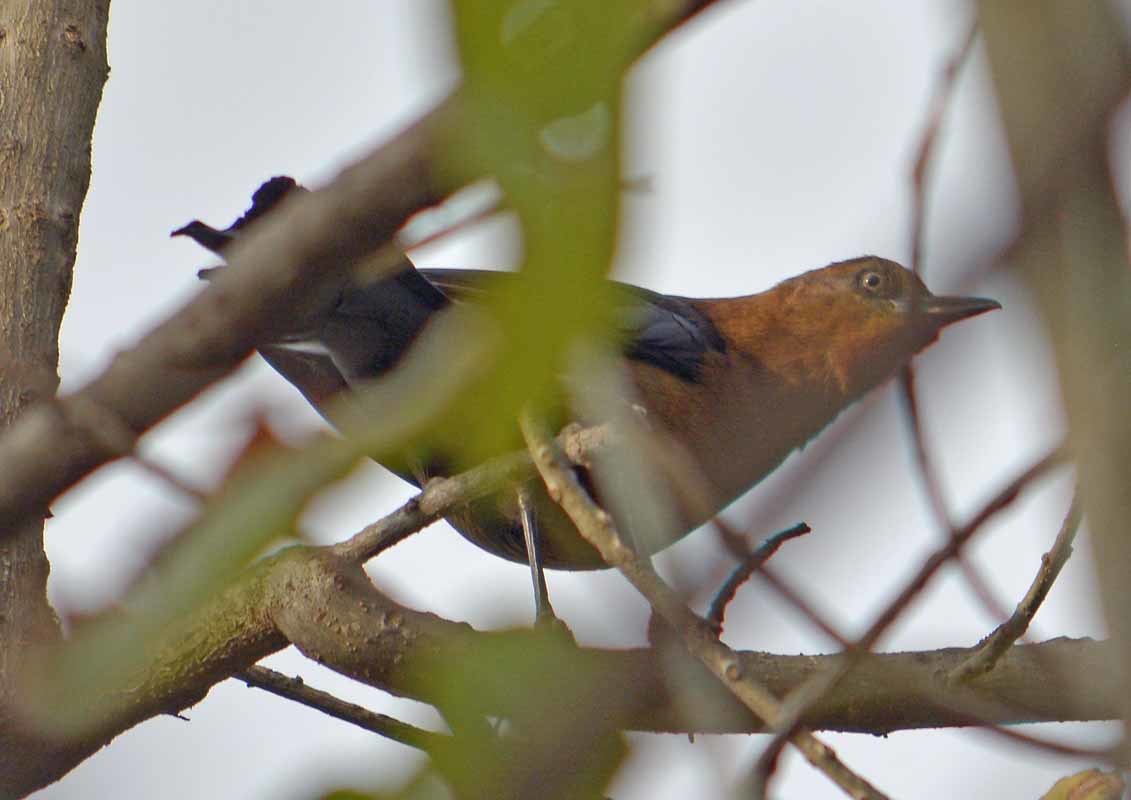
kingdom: Animalia
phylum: Chordata
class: Aves
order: Passeriformes
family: Icteridae
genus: Quiscalus
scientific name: Quiscalus mexicanus
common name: Great-tailed grackle
